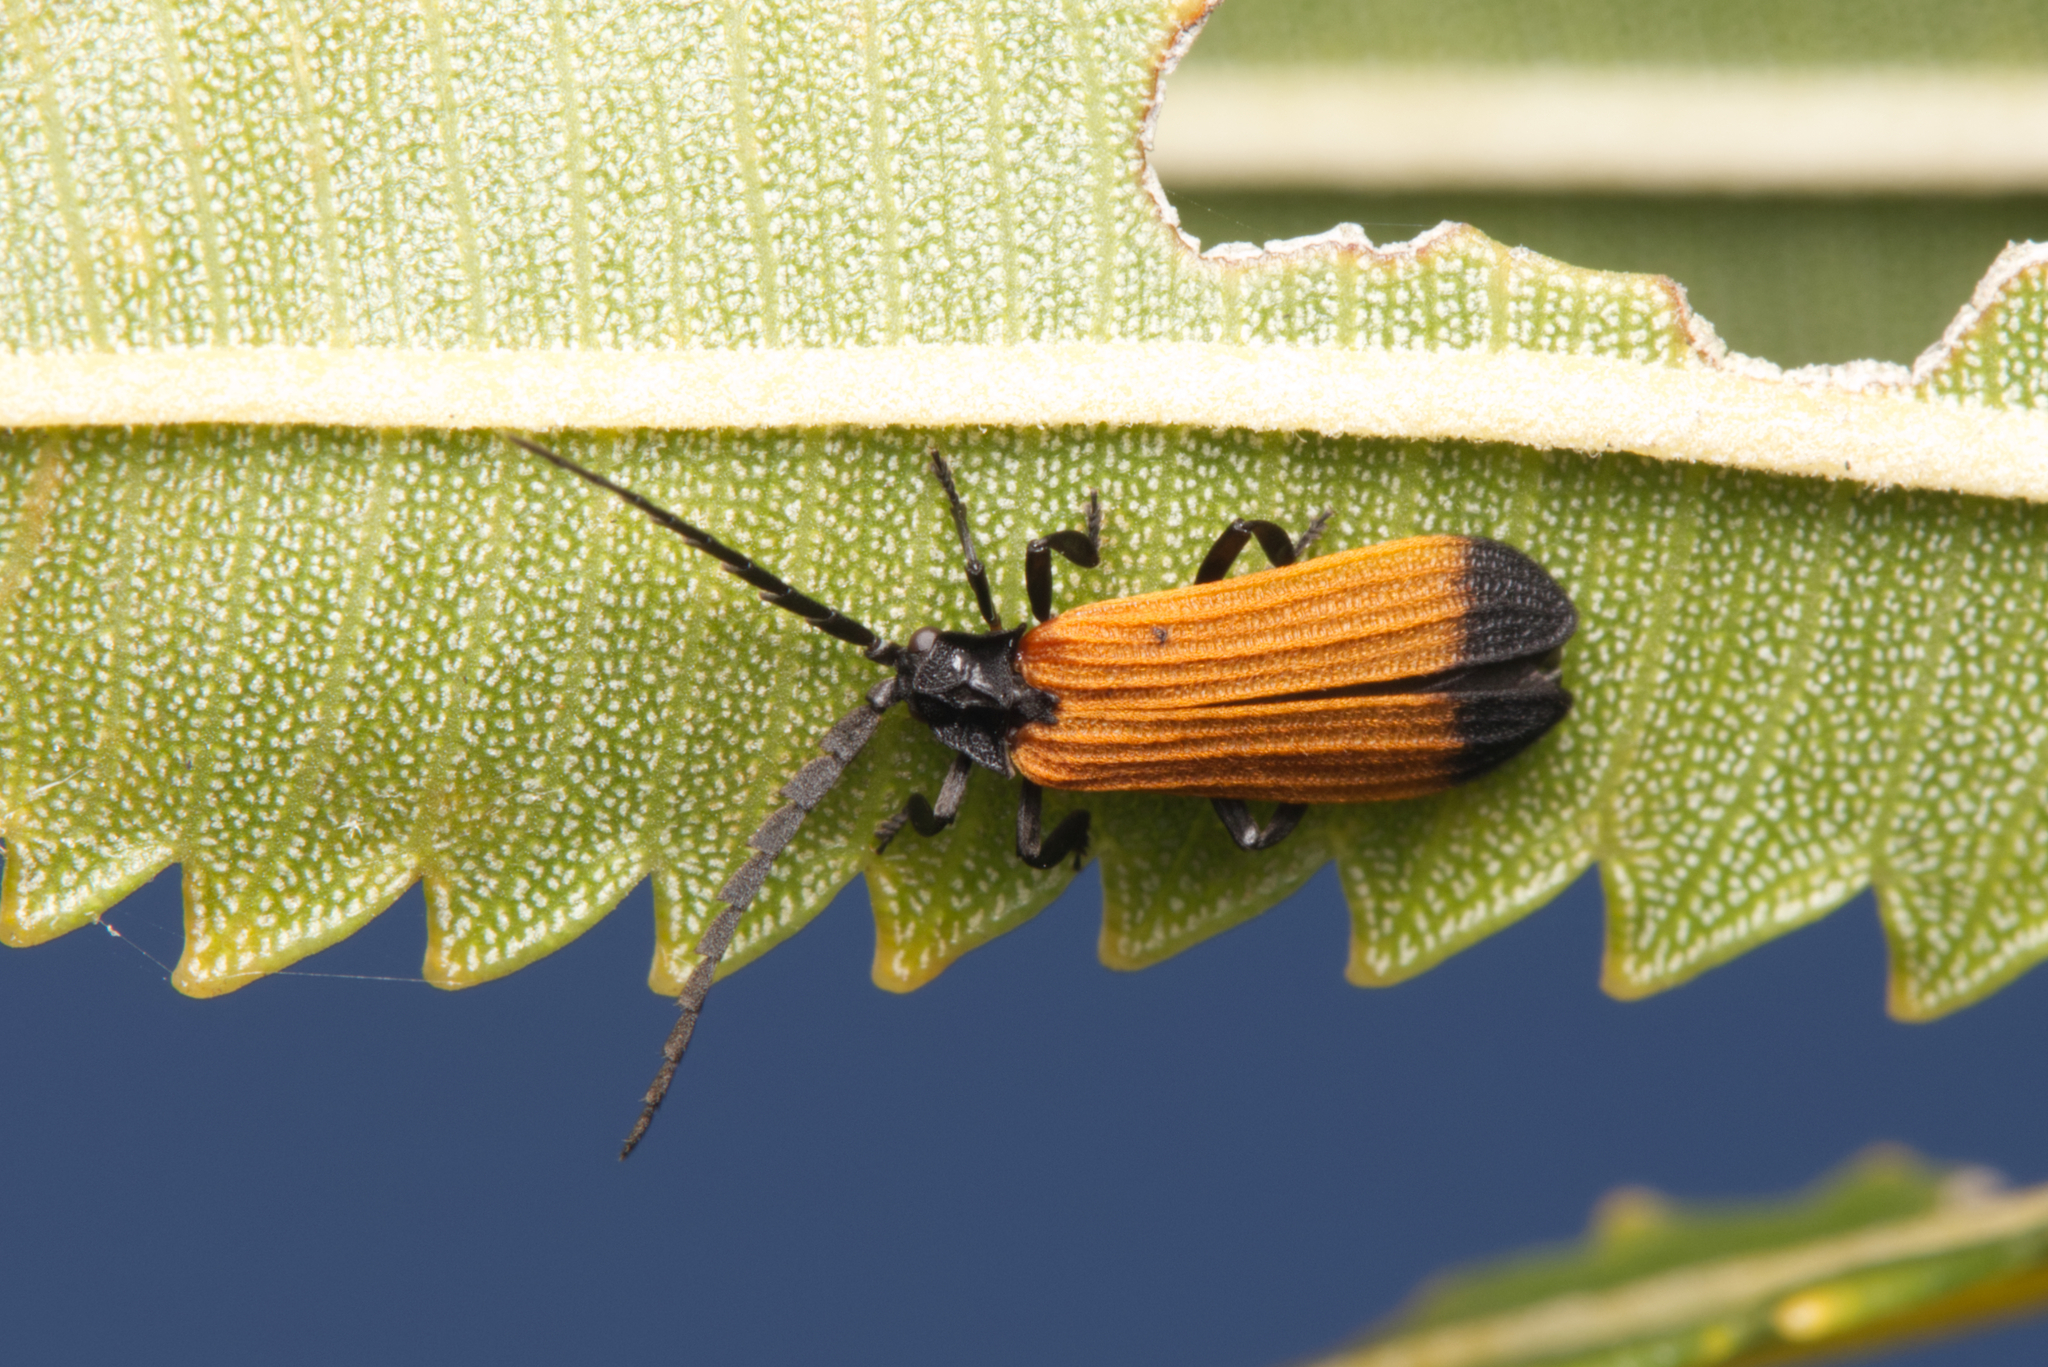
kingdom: Animalia
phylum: Arthropoda
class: Insecta
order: Coleoptera
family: Lycidae
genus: Synchonnus
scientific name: Synchonnus
